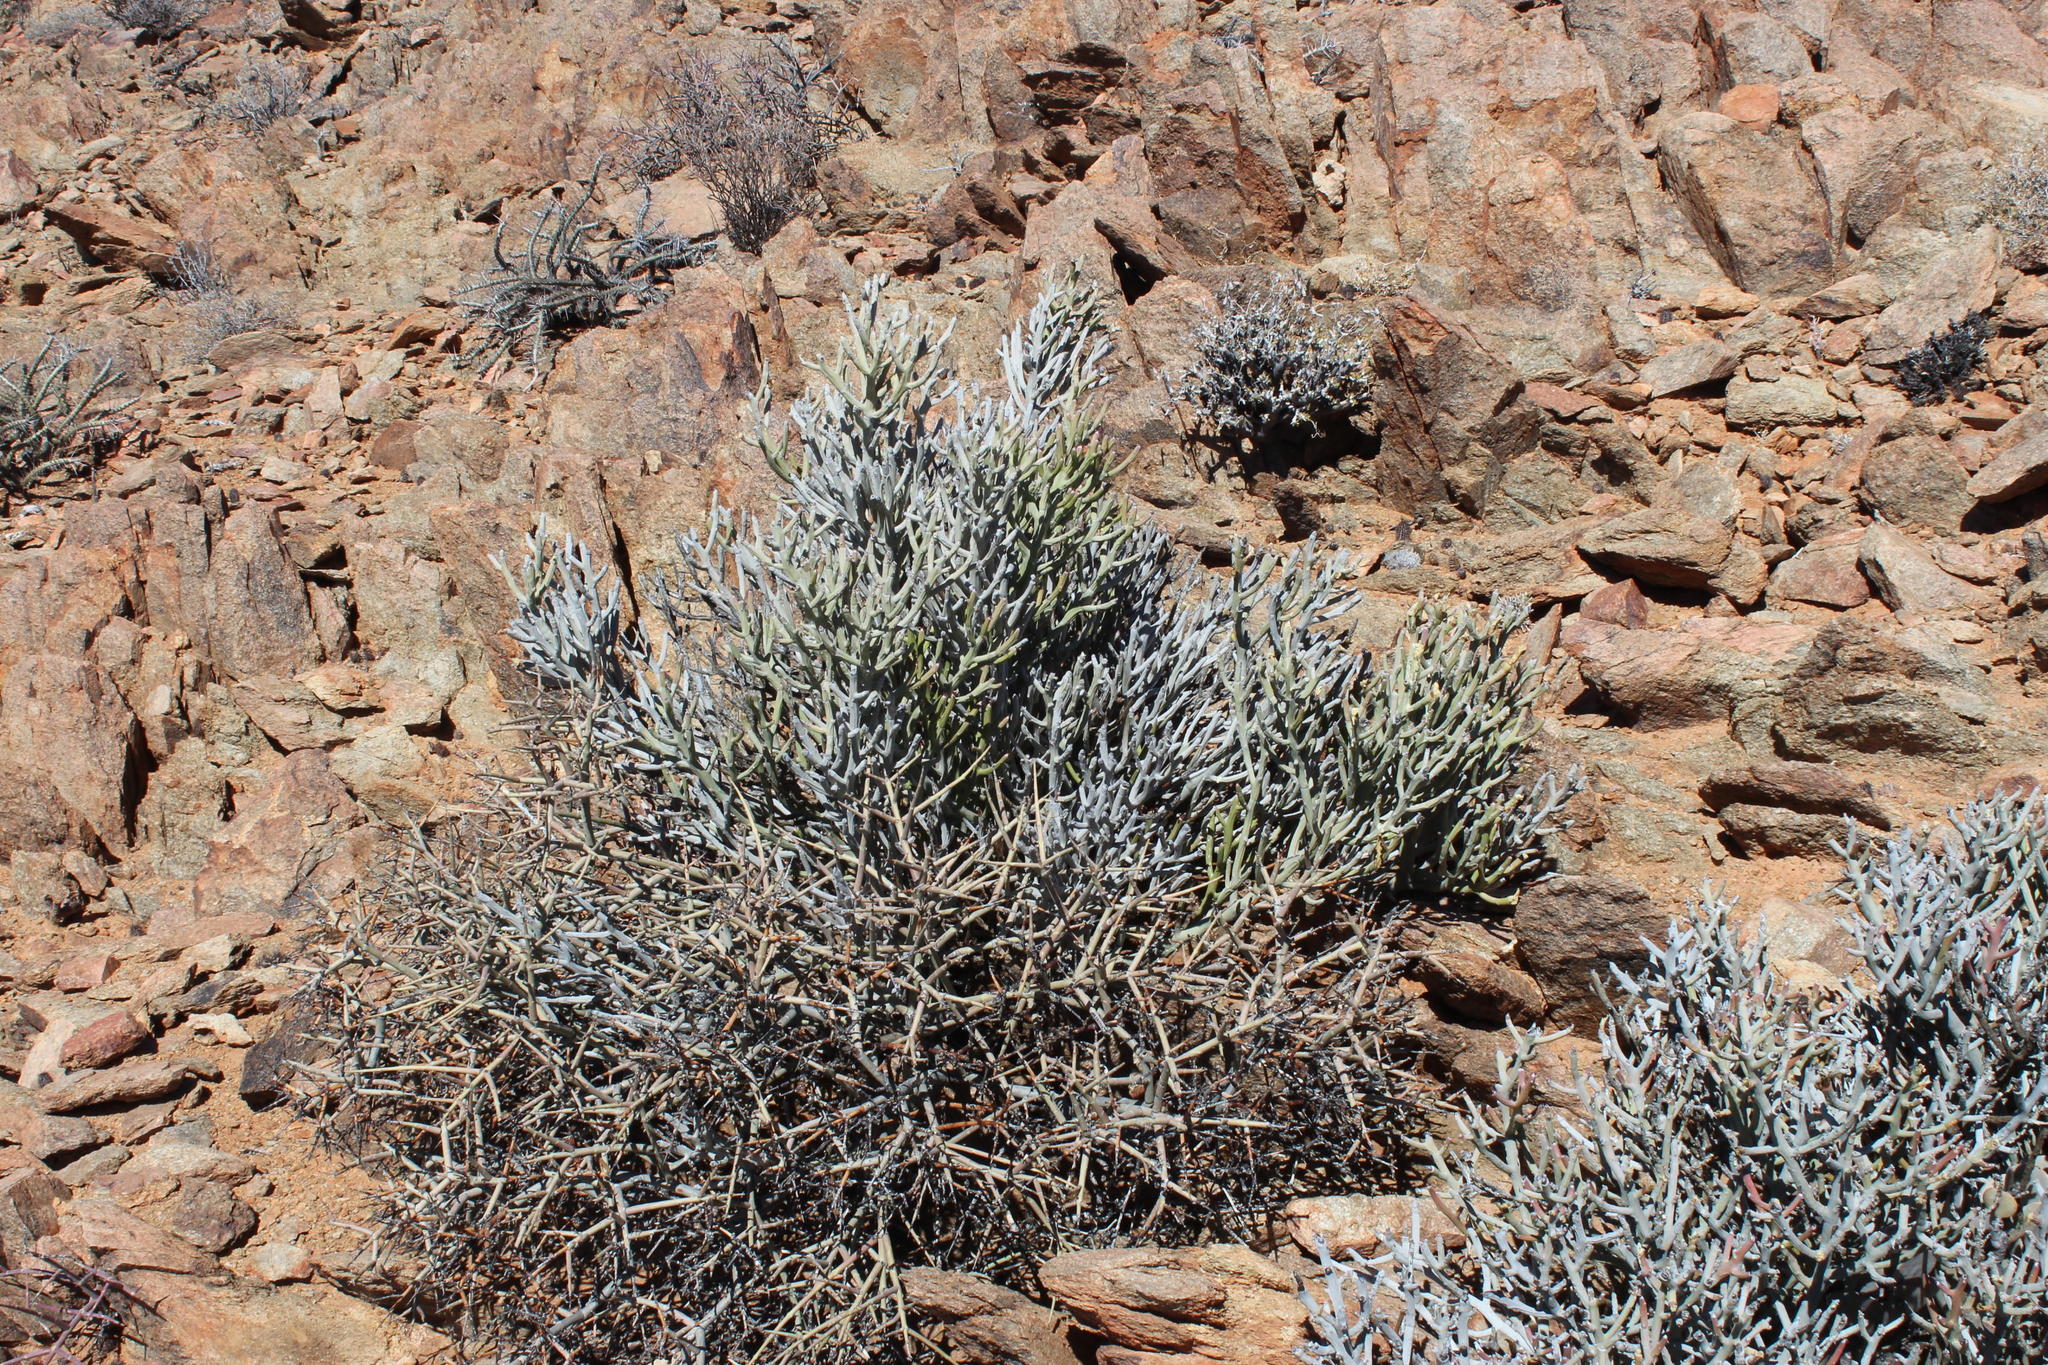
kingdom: Plantae
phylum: Tracheophyta
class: Magnoliopsida
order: Malpighiales
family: Euphorbiaceae
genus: Euphorbia
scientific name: Euphorbia gummifera
